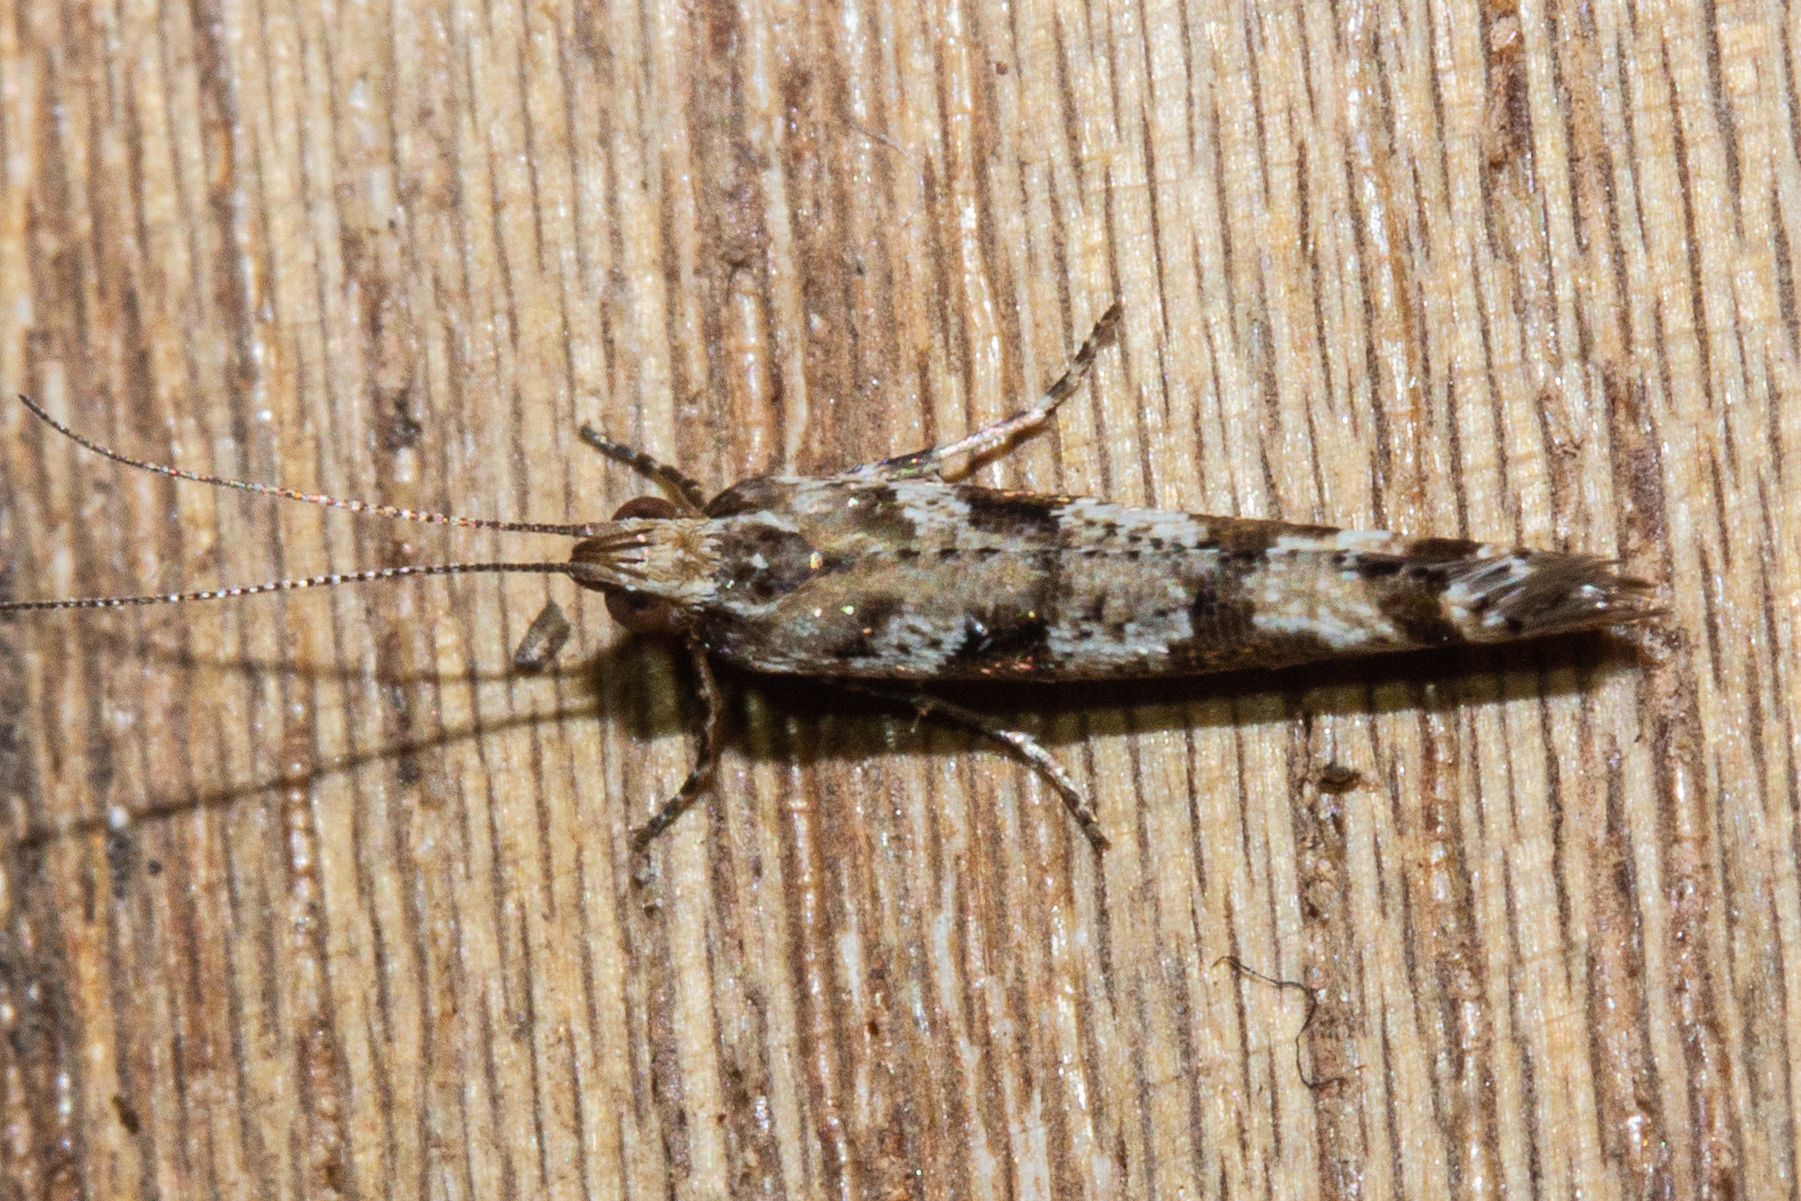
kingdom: Animalia
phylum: Arthropoda
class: Insecta
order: Lepidoptera
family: Glyphipterigidae
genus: Chrysorthenches
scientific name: Chrysorthenches porphyritis
